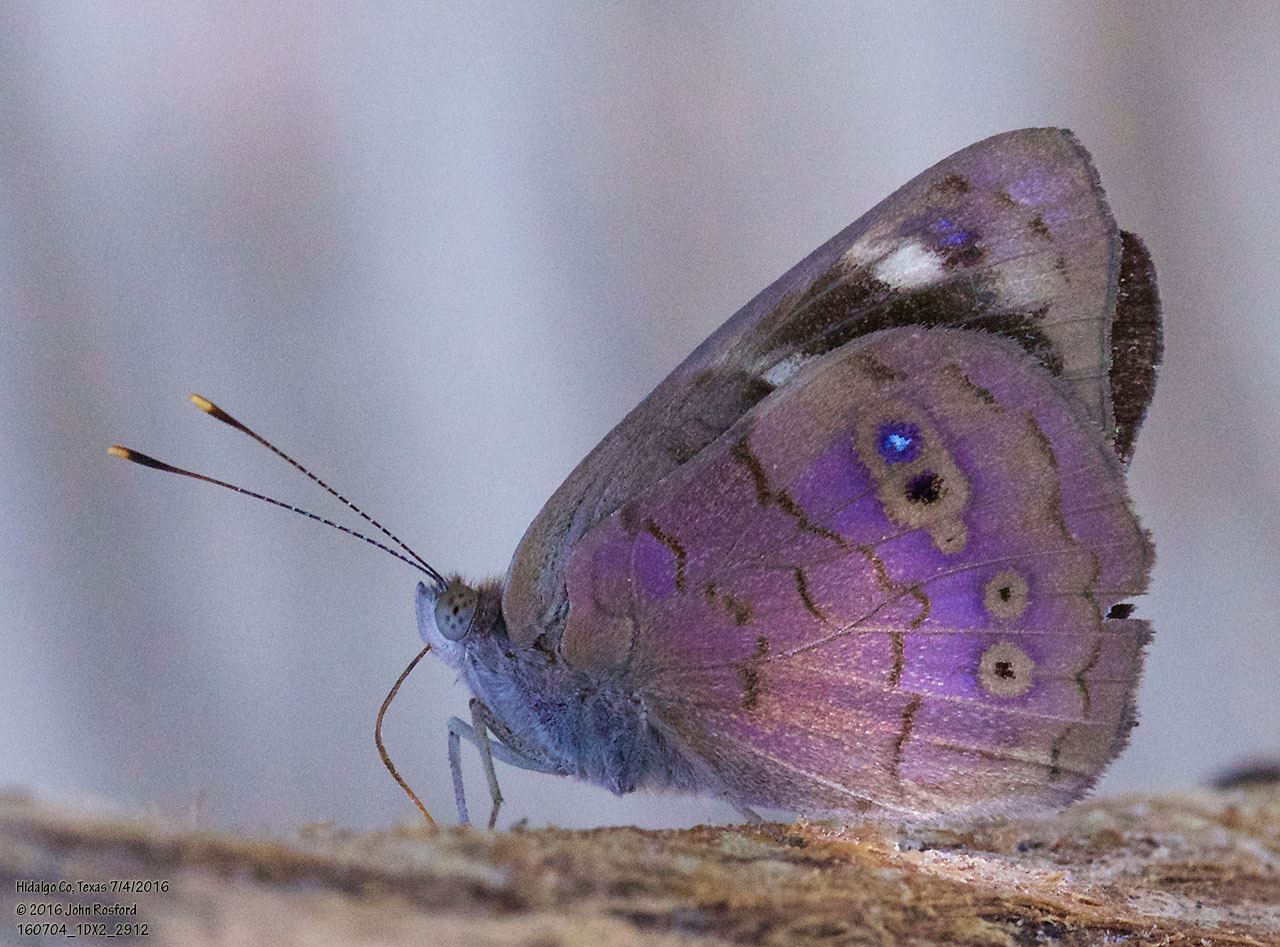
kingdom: Animalia
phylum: Arthropoda
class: Insecta
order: Lepidoptera
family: Nymphalidae
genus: Eunica
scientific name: Eunica monima
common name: Dingy purplewing
